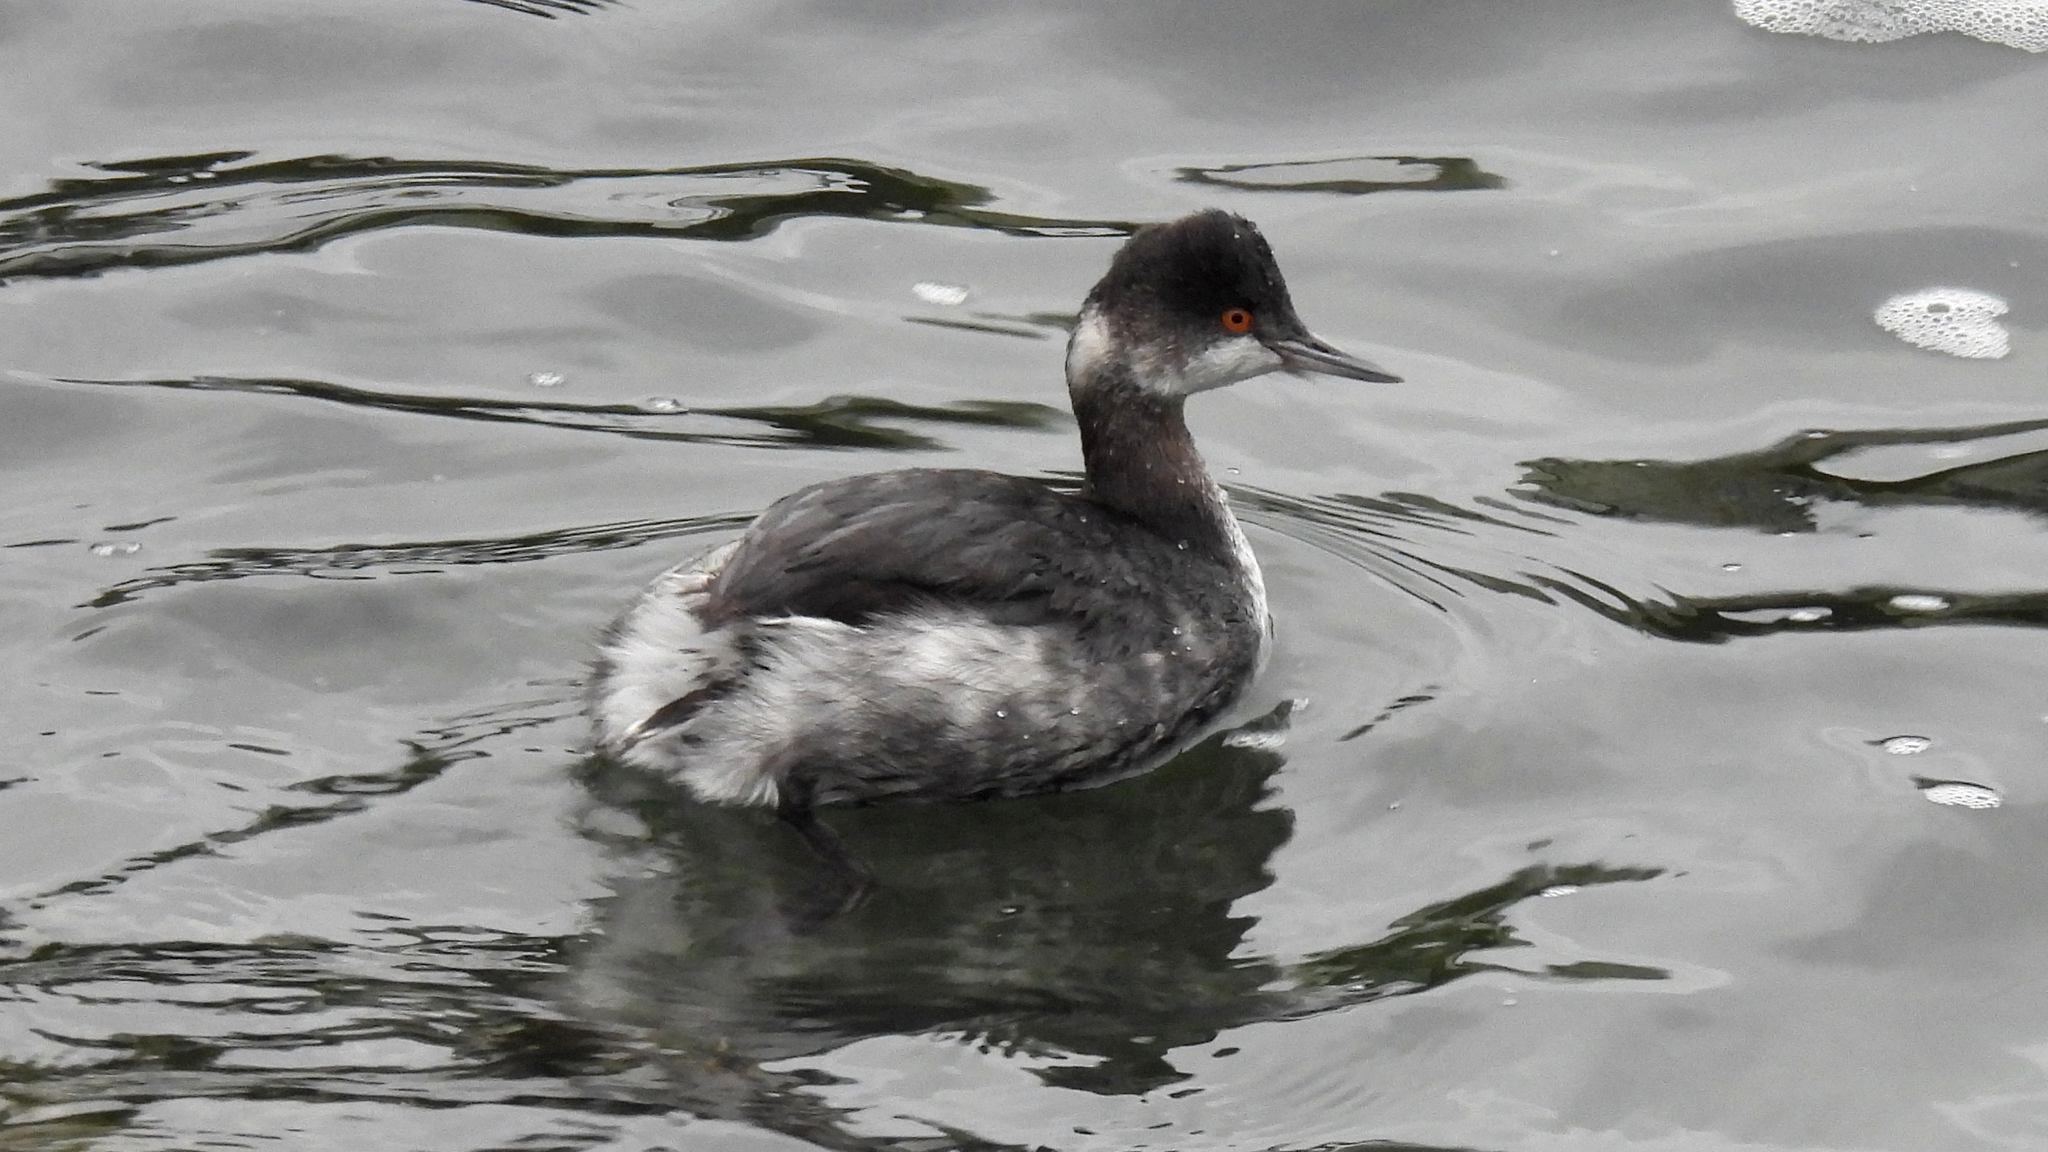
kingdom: Animalia
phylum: Chordata
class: Aves
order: Podicipediformes
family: Podicipedidae
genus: Podiceps
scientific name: Podiceps nigricollis
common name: Black-necked grebe
